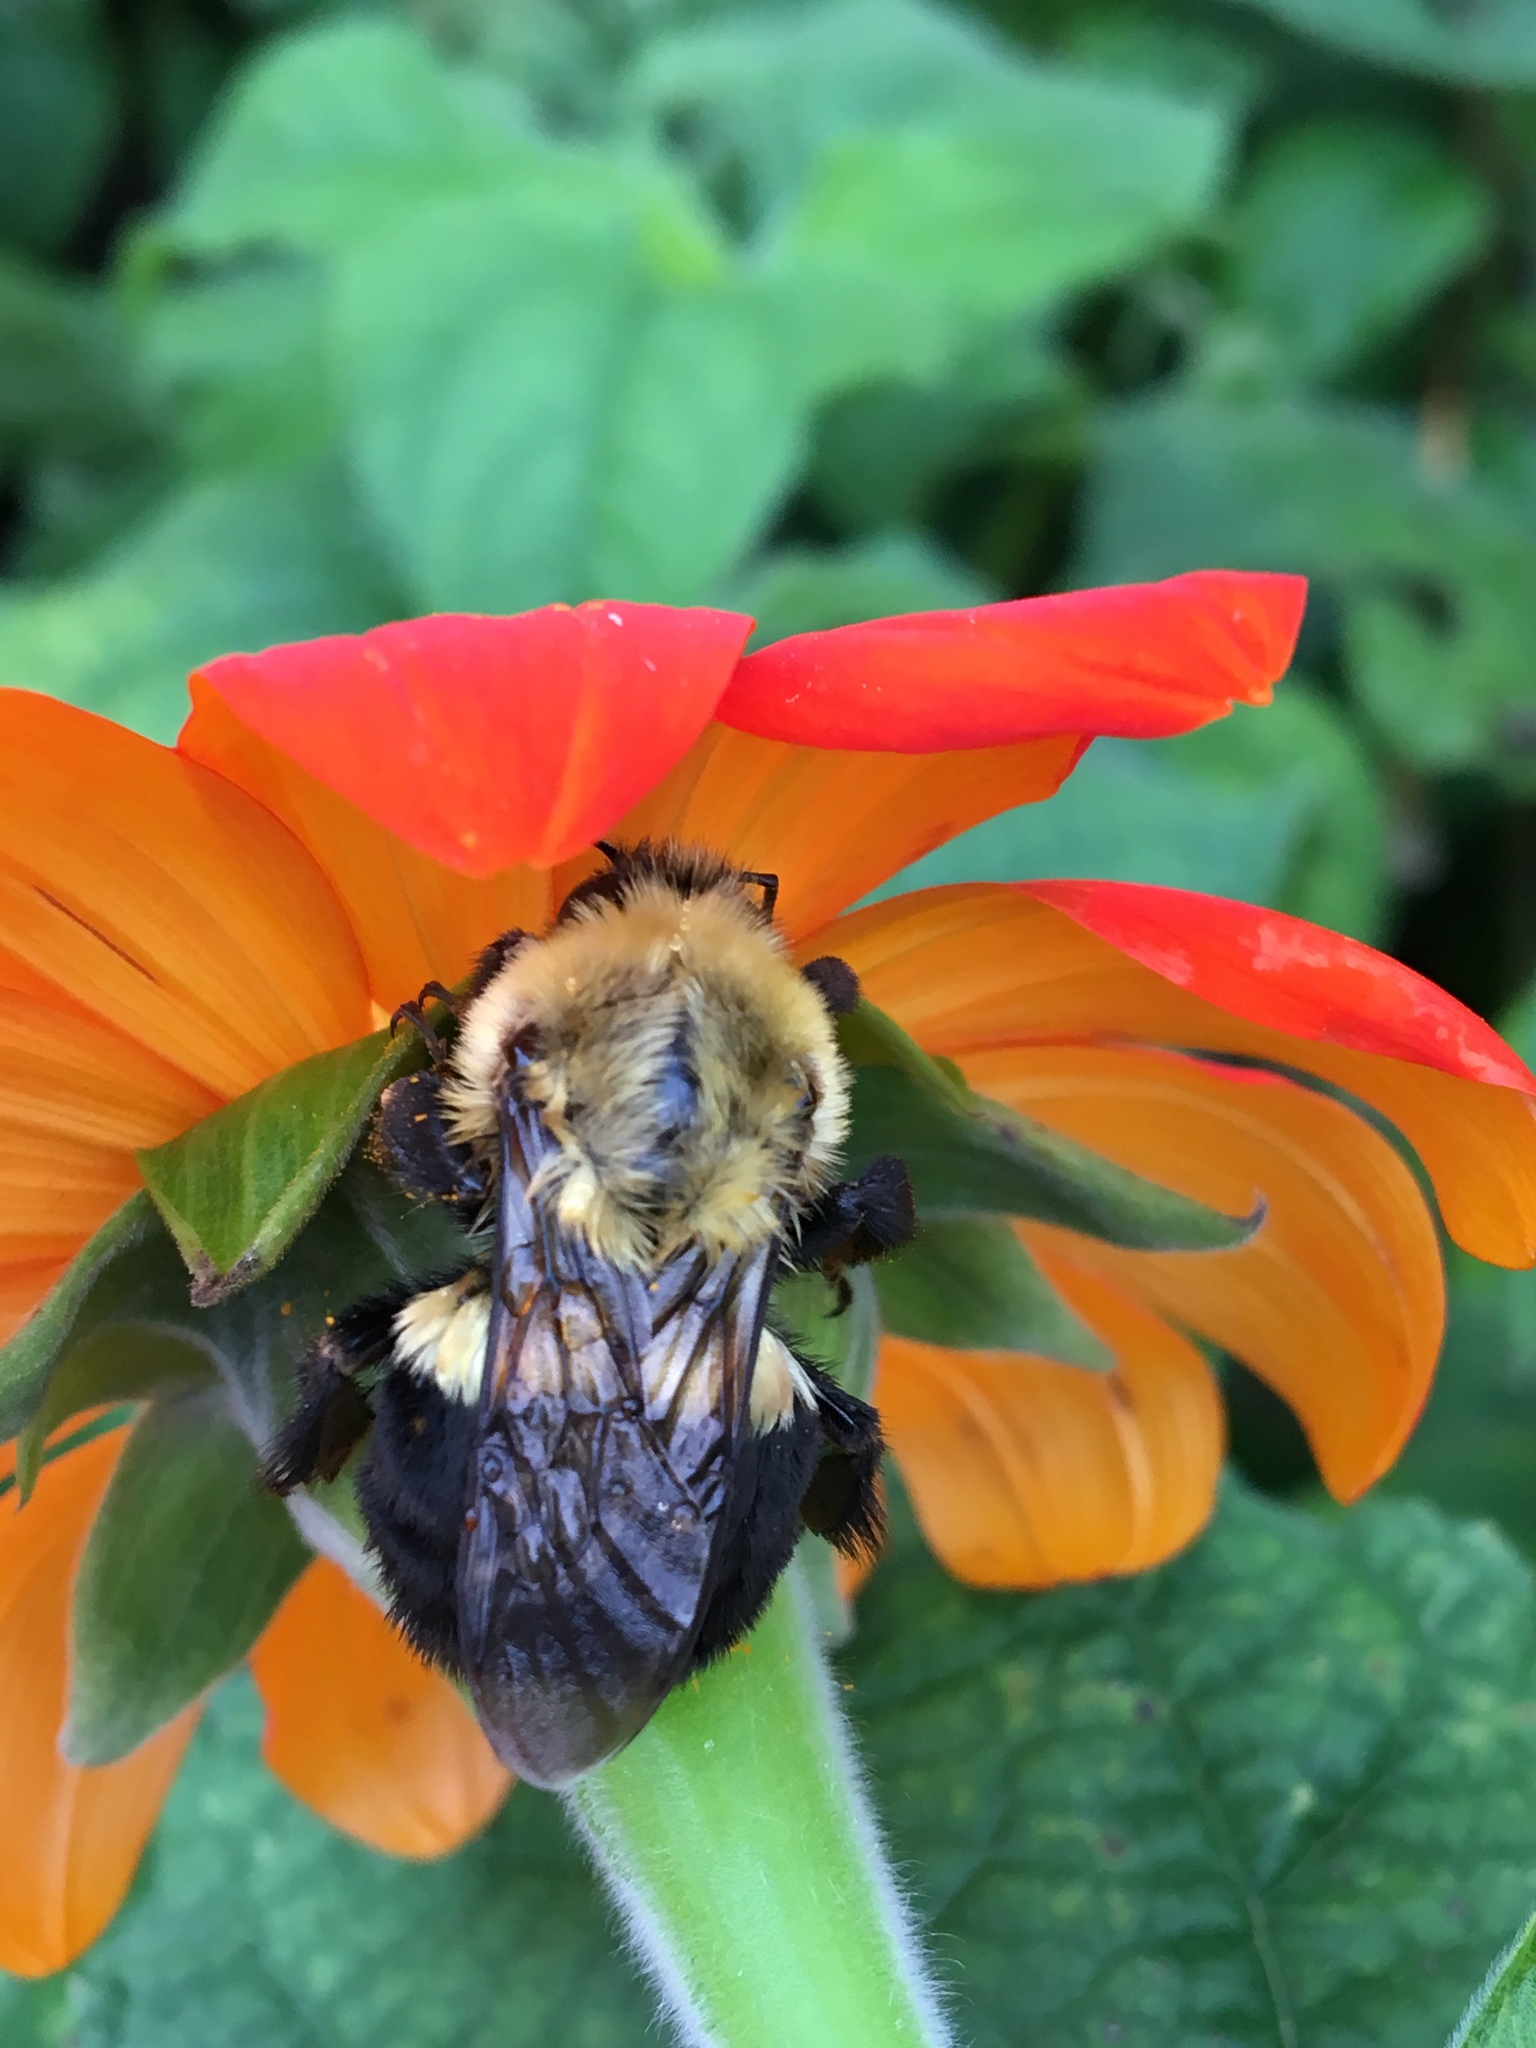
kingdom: Animalia
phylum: Arthropoda
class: Insecta
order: Hymenoptera
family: Apidae
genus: Bombus
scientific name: Bombus impatiens
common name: Common eastern bumble bee
